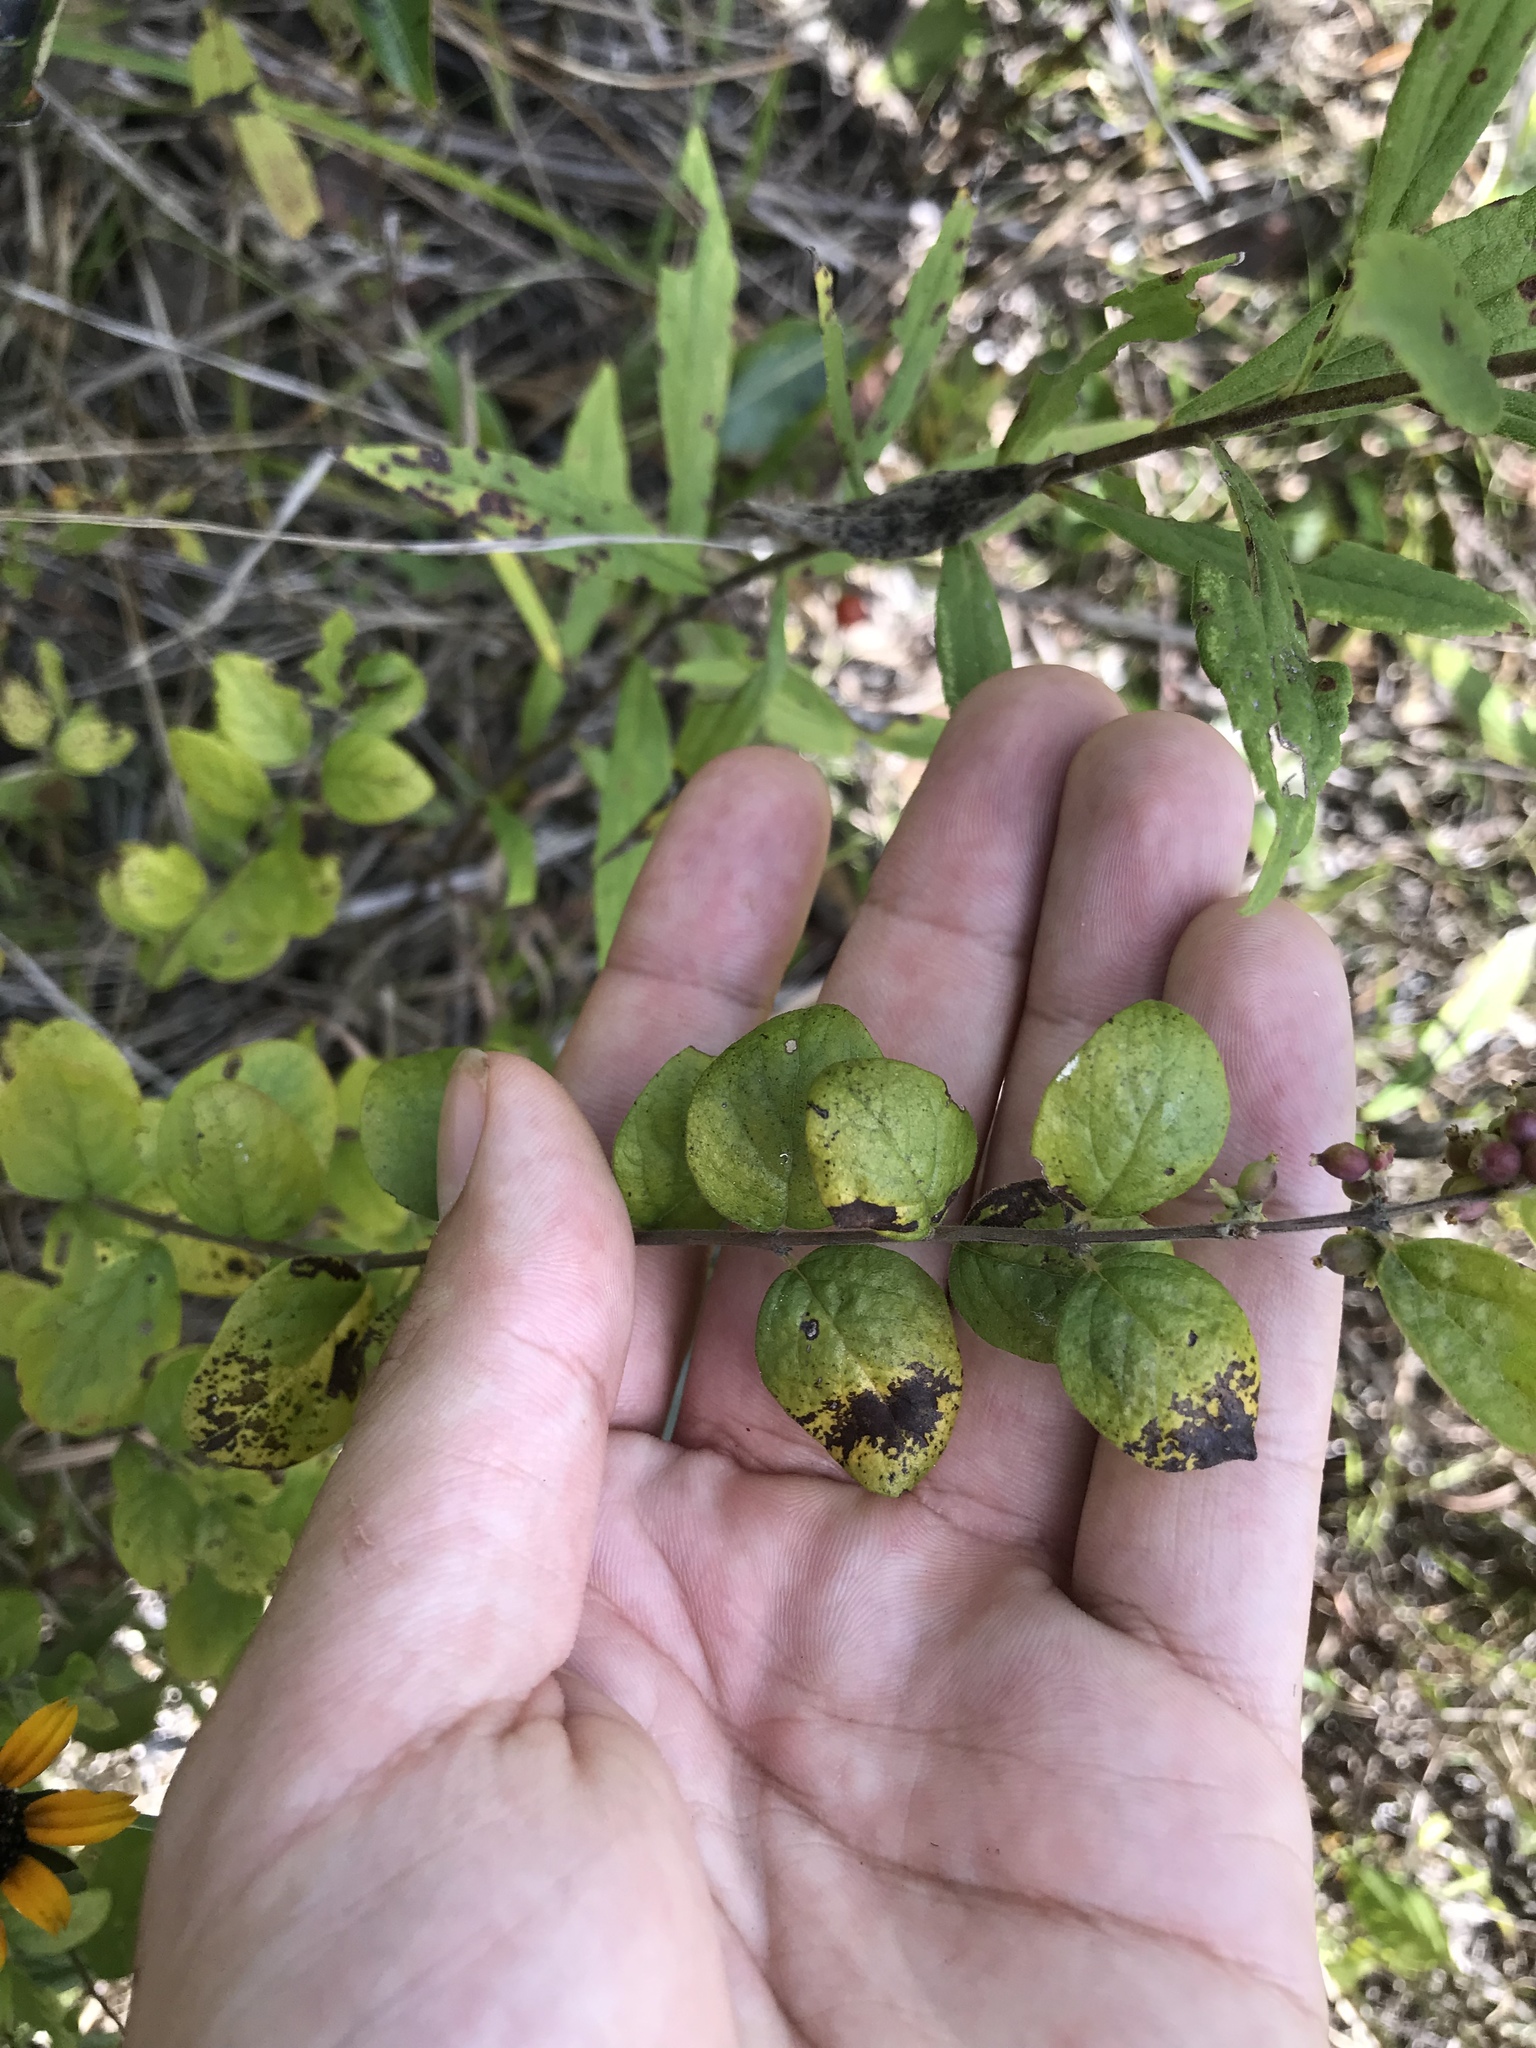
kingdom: Plantae
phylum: Tracheophyta
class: Magnoliopsida
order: Dipsacales
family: Caprifoliaceae
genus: Symphoricarpos
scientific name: Symphoricarpos orbiculatus
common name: Coralberry
